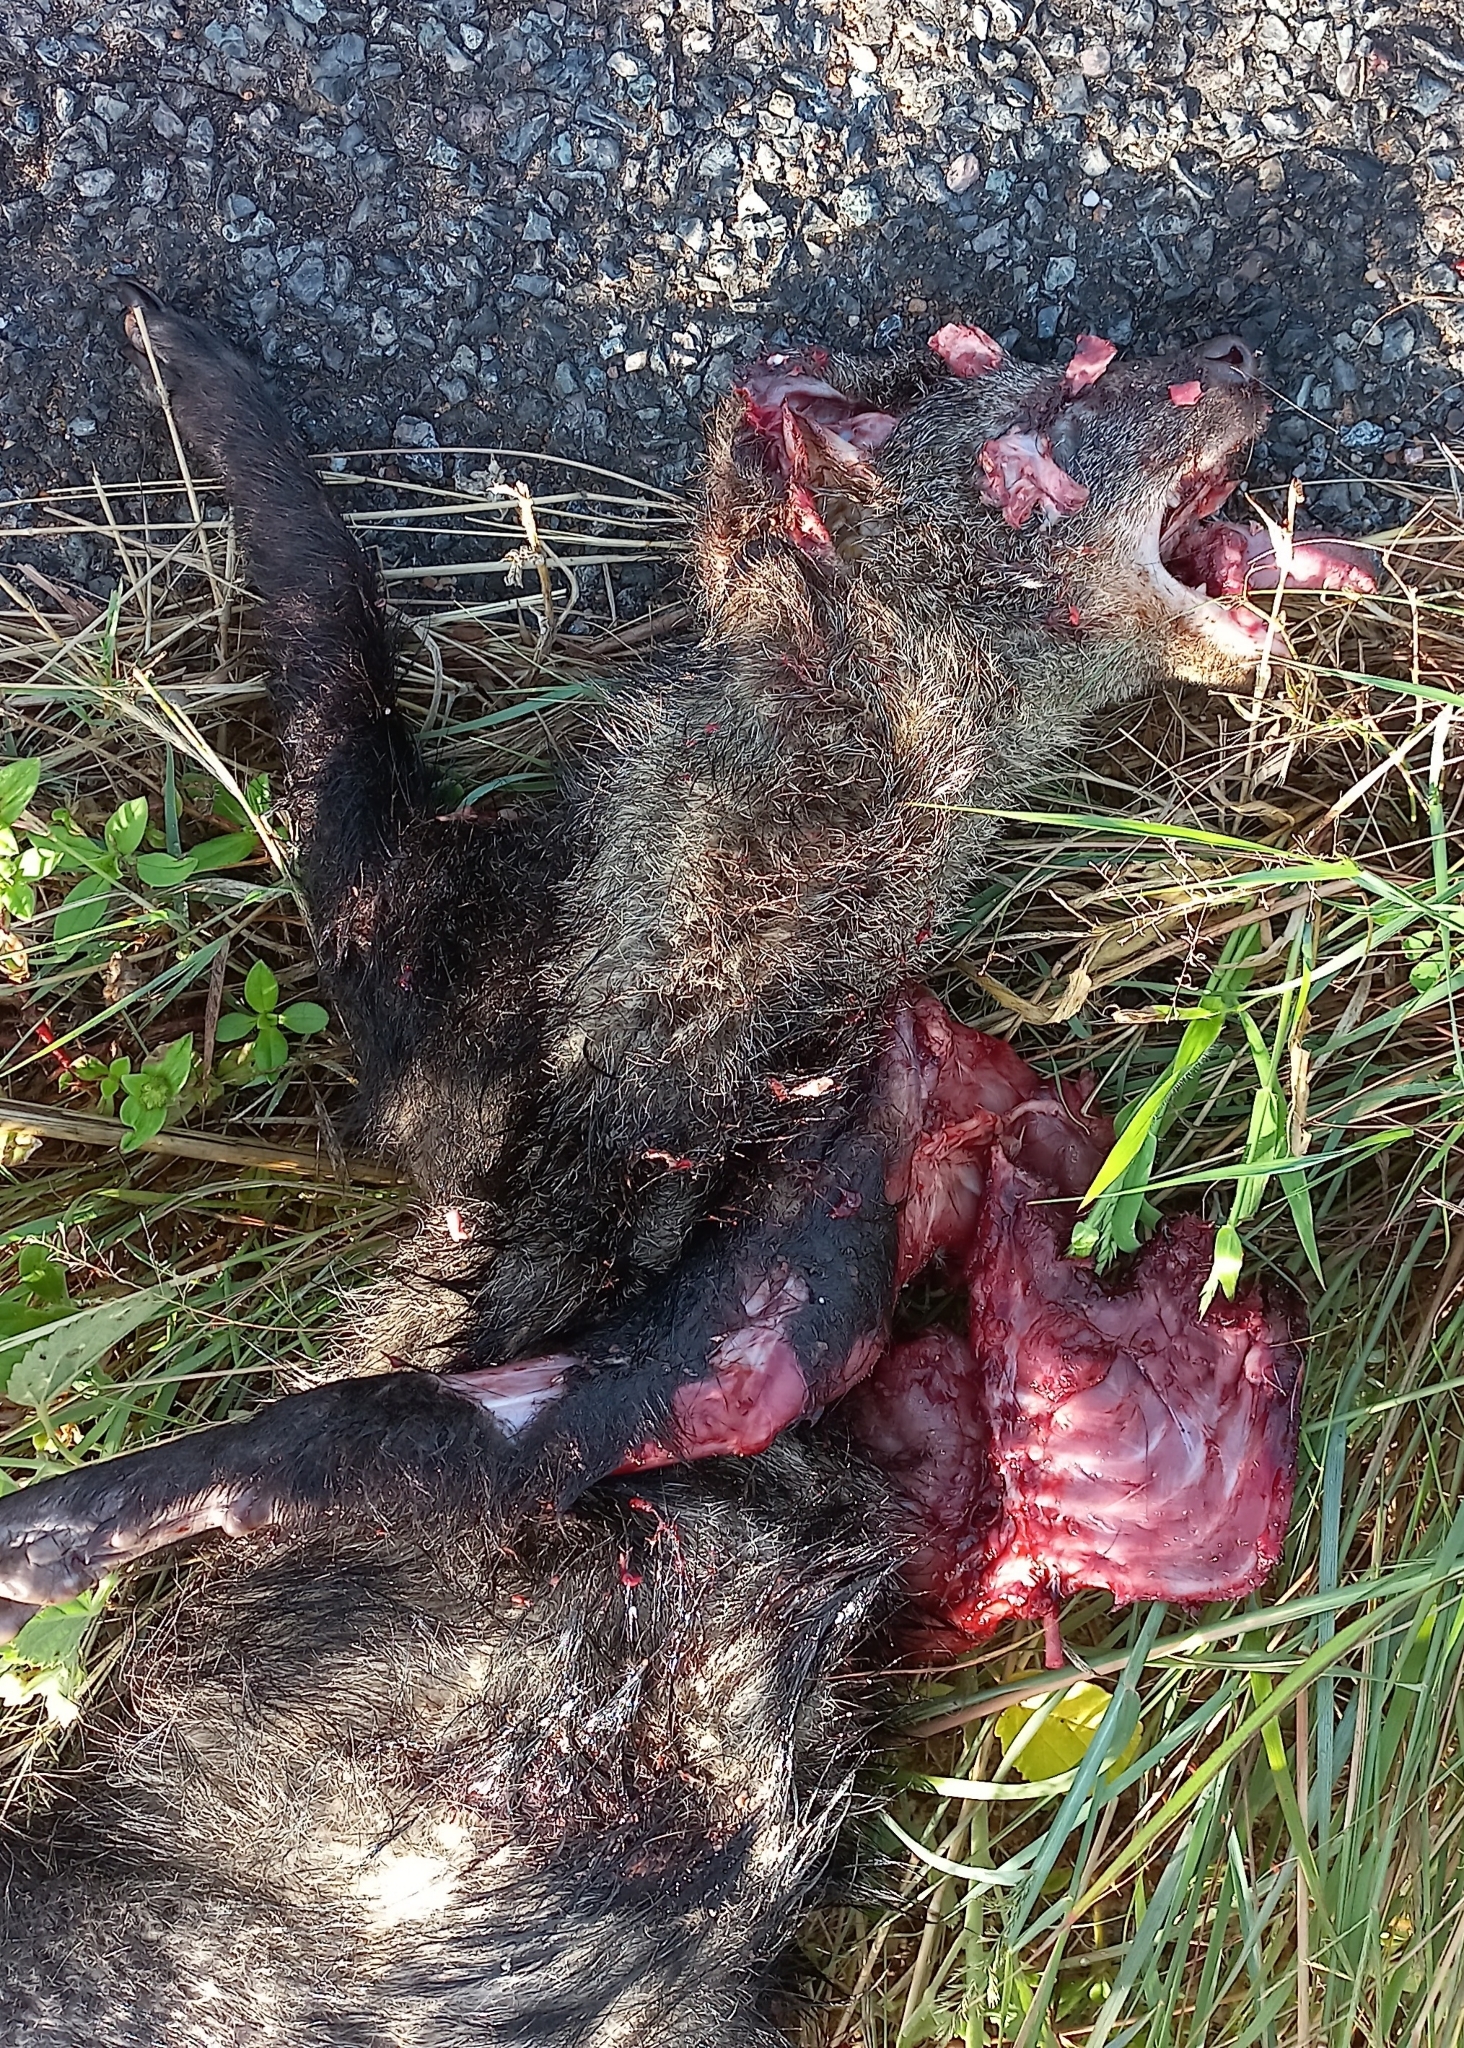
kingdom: Animalia
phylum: Chordata
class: Mammalia
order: Carnivora
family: Herpestidae
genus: Ichneumia
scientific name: Ichneumia albicauda
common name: White-tailed mongoose
